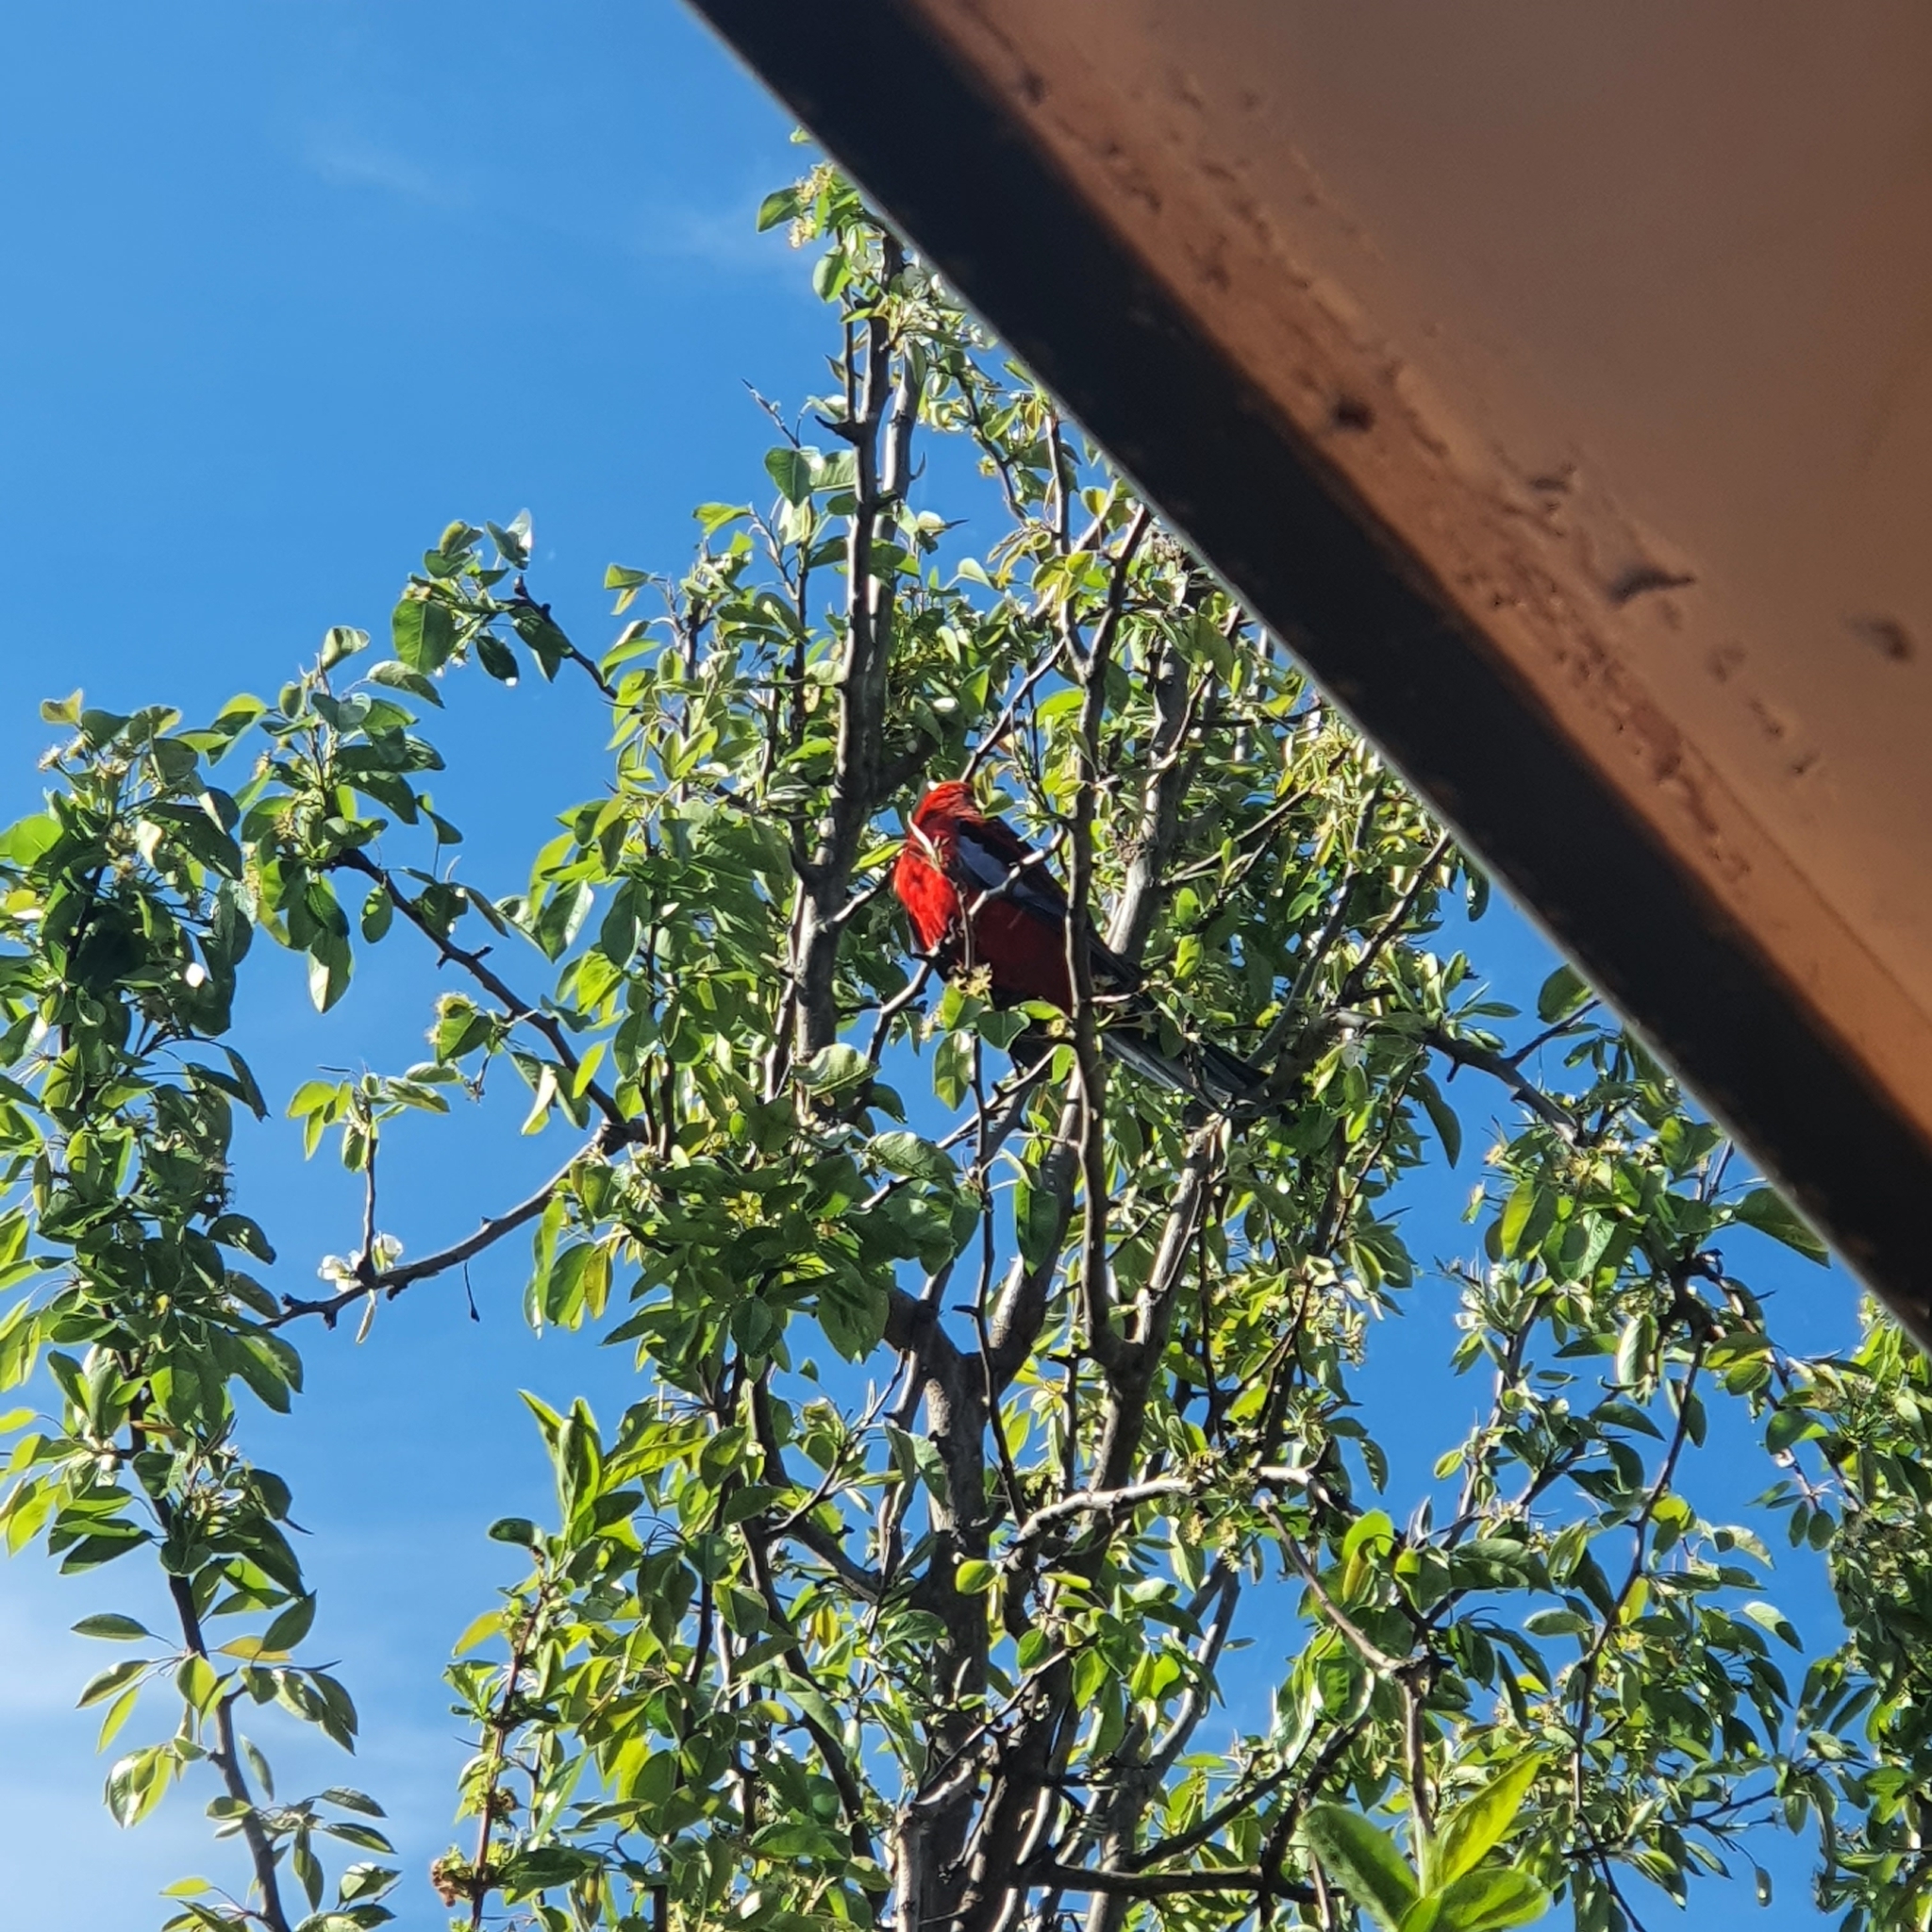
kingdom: Animalia
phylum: Chordata
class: Aves
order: Psittaciformes
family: Psittacidae
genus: Platycercus
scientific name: Platycercus elegans
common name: Crimson rosella
